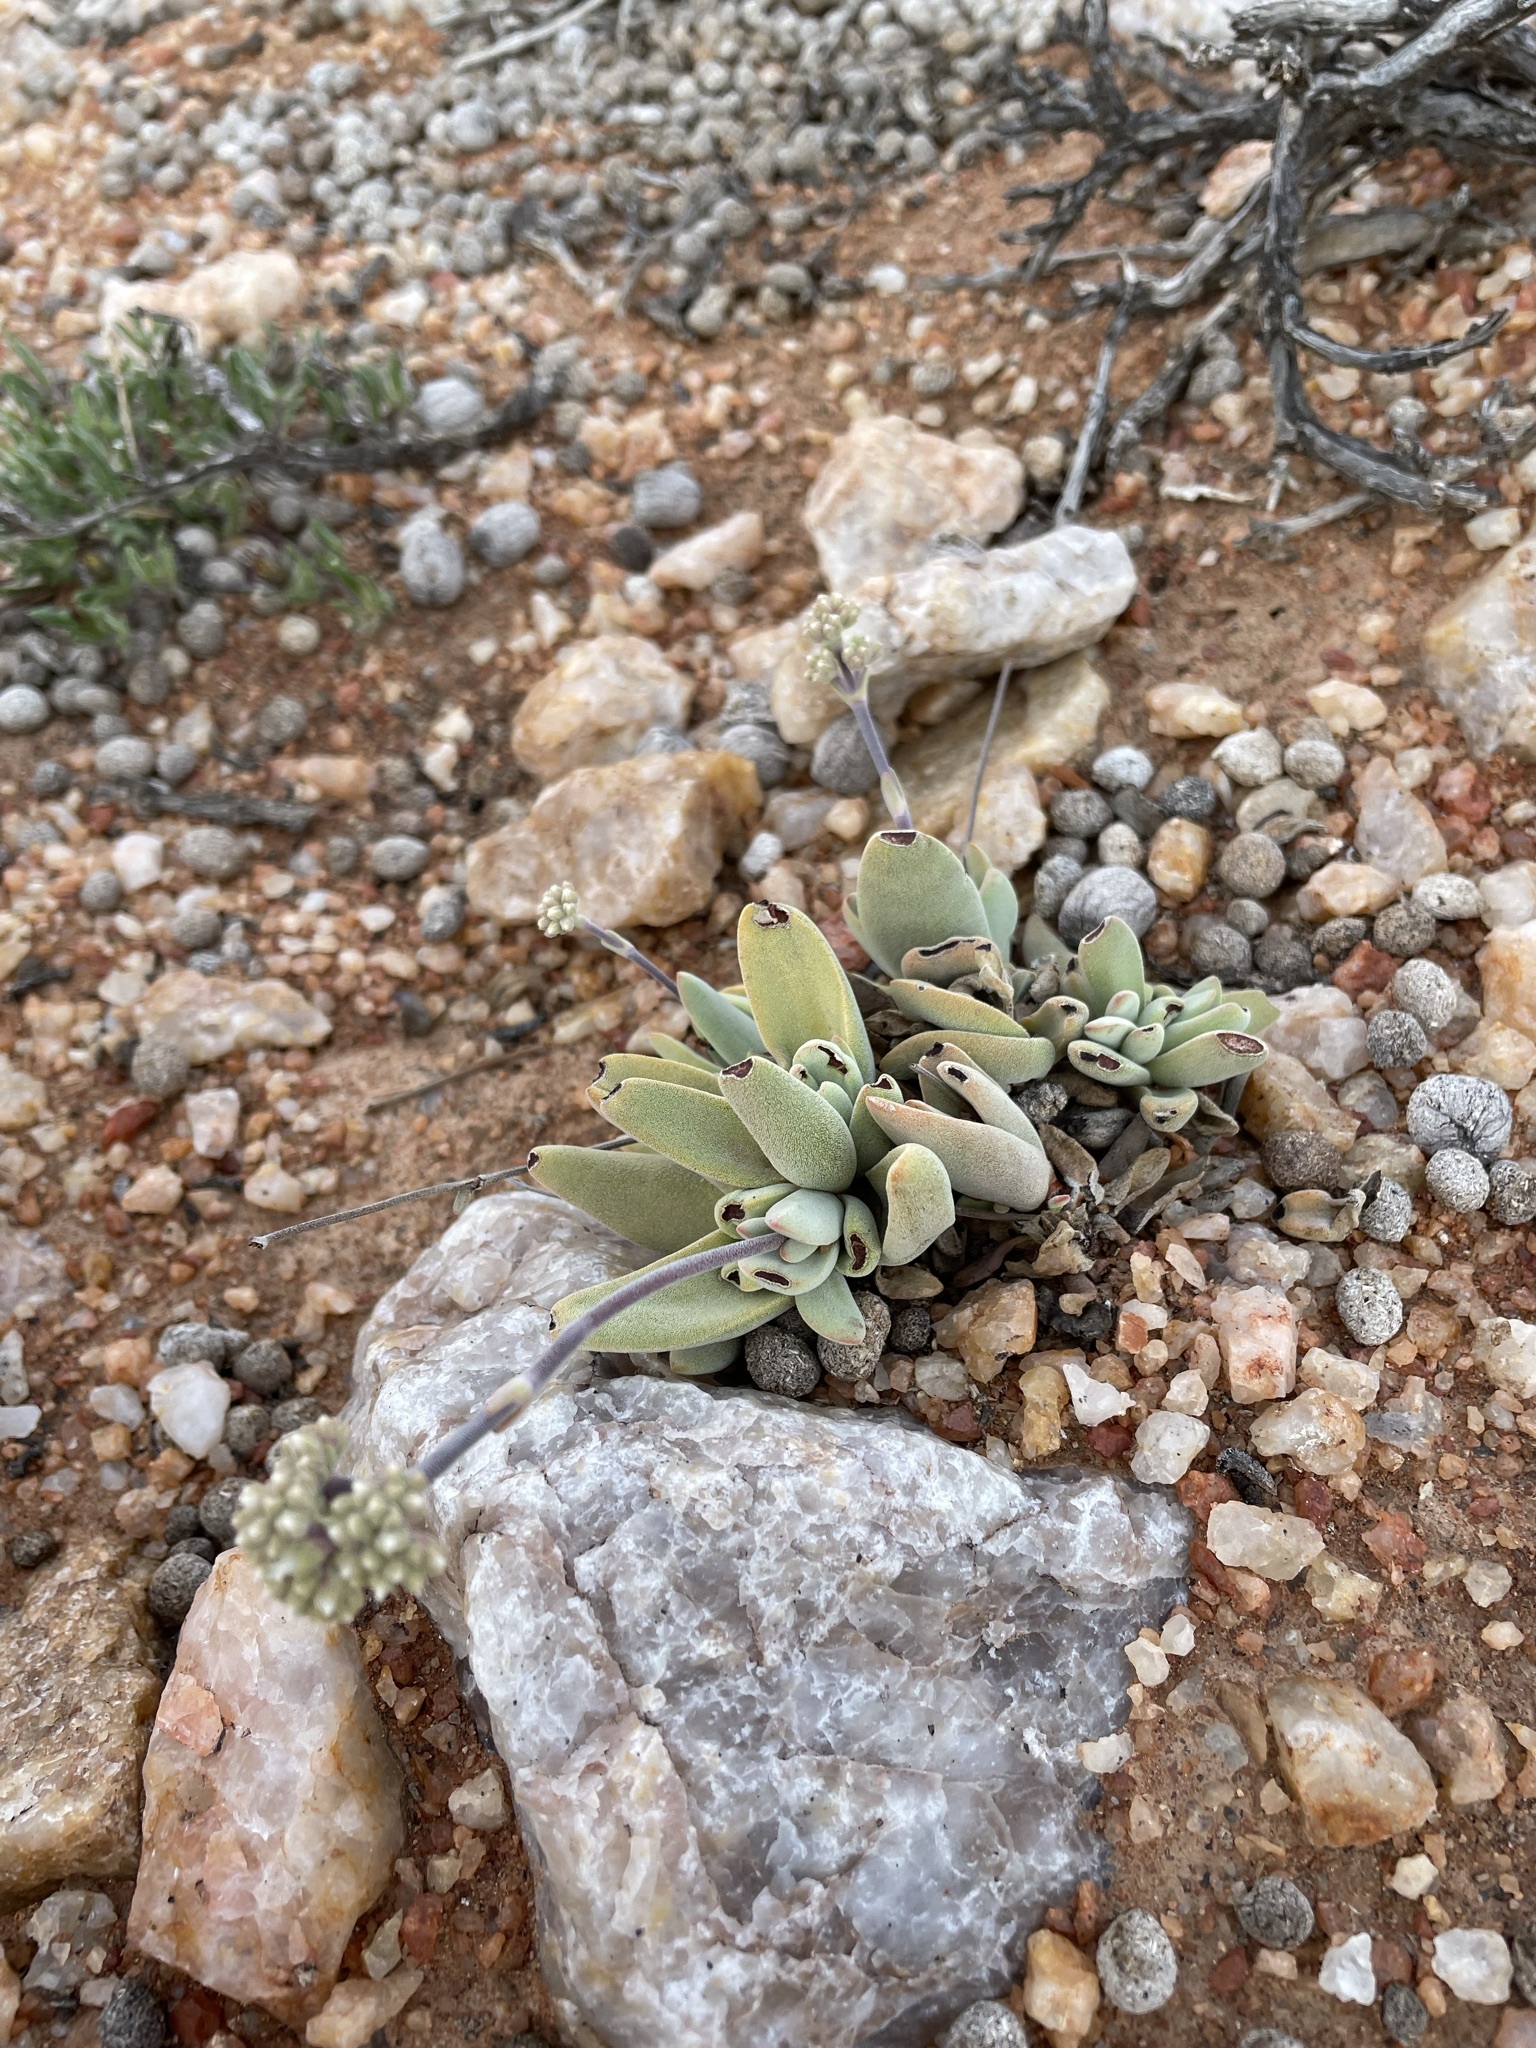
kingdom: Plantae
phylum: Tracheophyta
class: Magnoliopsida
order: Saxifragales
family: Crassulaceae
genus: Crassula
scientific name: Crassula namaquensis
